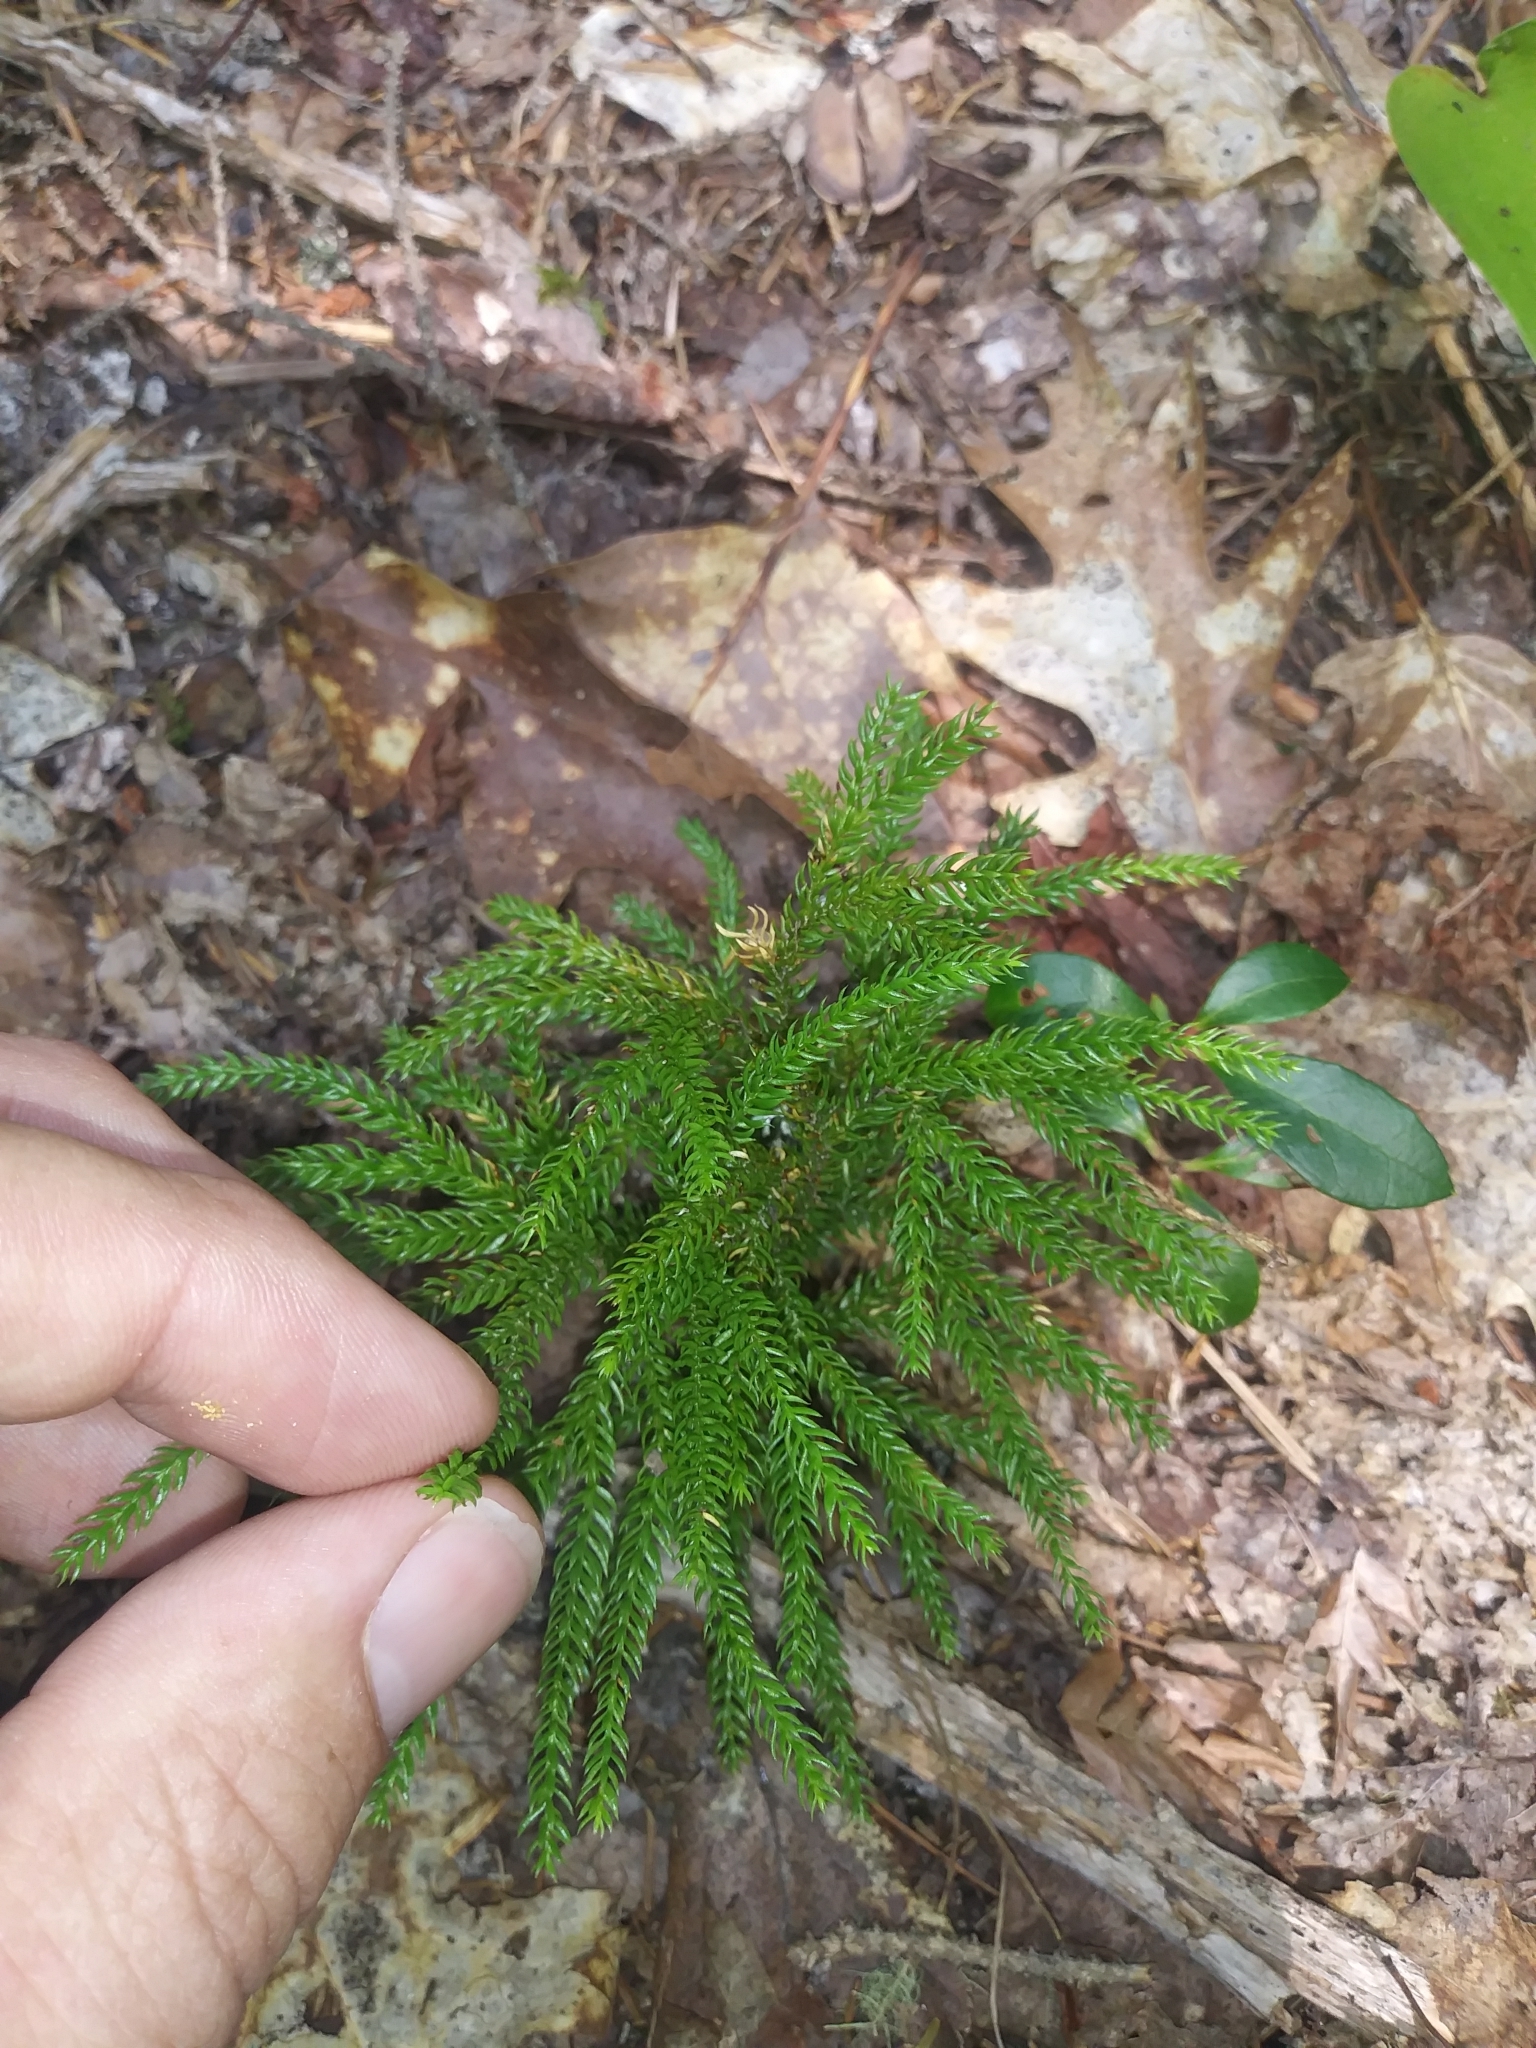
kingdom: Plantae
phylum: Tracheophyta
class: Lycopodiopsida
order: Lycopodiales
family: Lycopodiaceae
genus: Dendrolycopodium
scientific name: Dendrolycopodium dendroideum
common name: Northern tree-clubmoss
